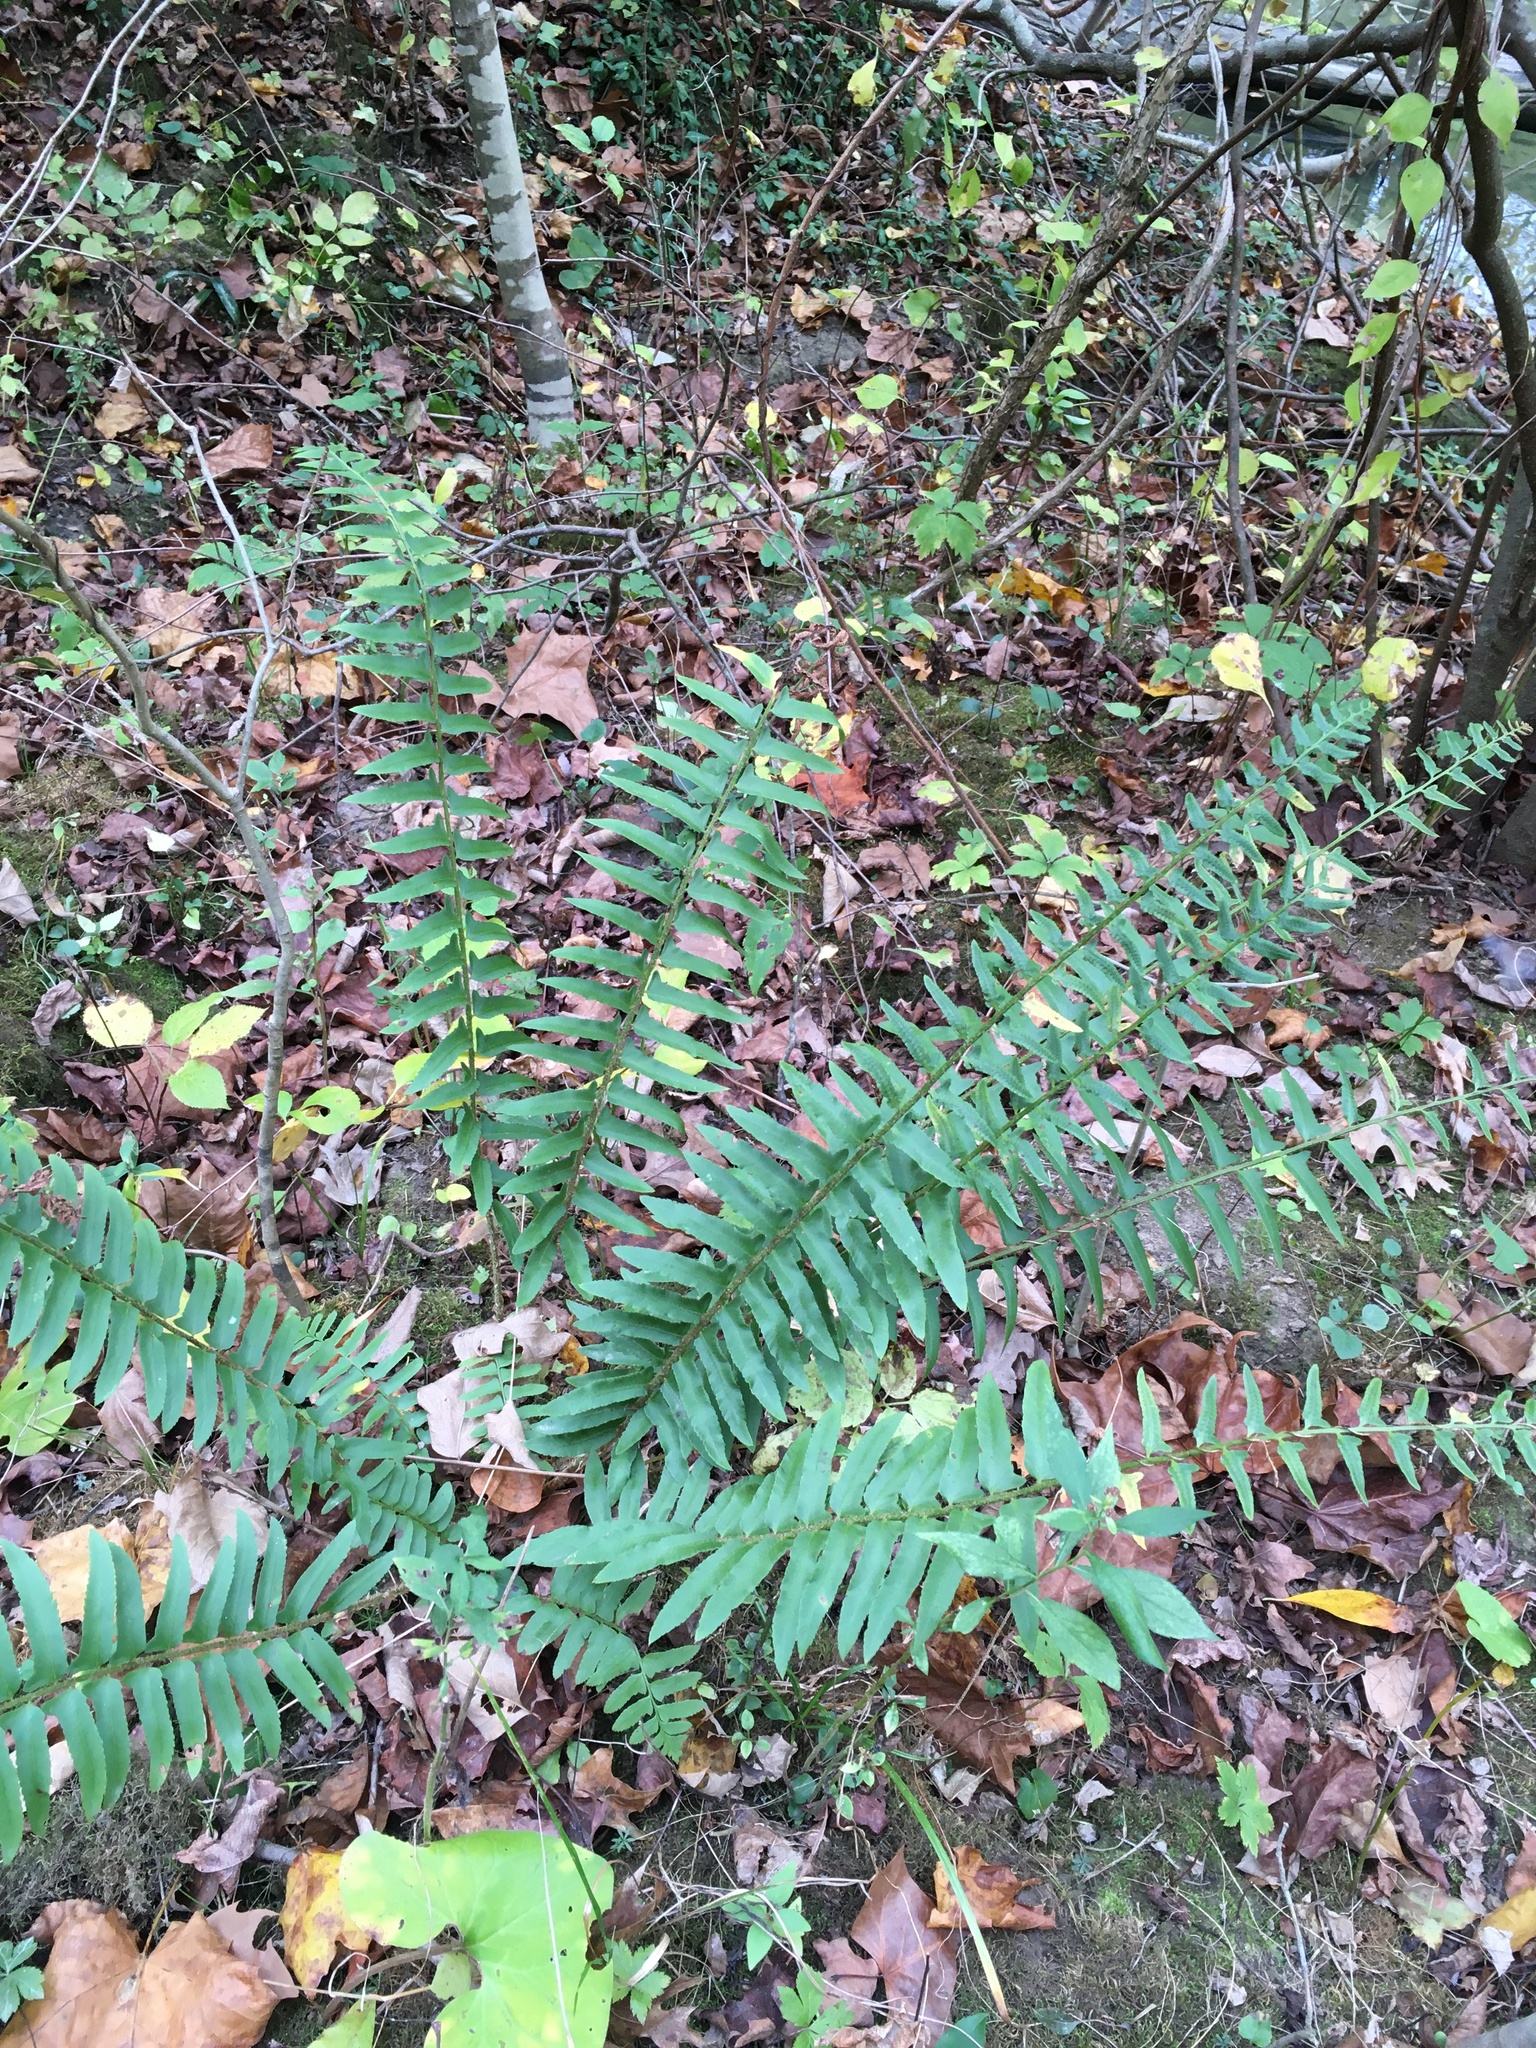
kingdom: Plantae
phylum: Tracheophyta
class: Polypodiopsida
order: Polypodiales
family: Dryopteridaceae
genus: Polystichum
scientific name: Polystichum acrostichoides
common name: Christmas fern
